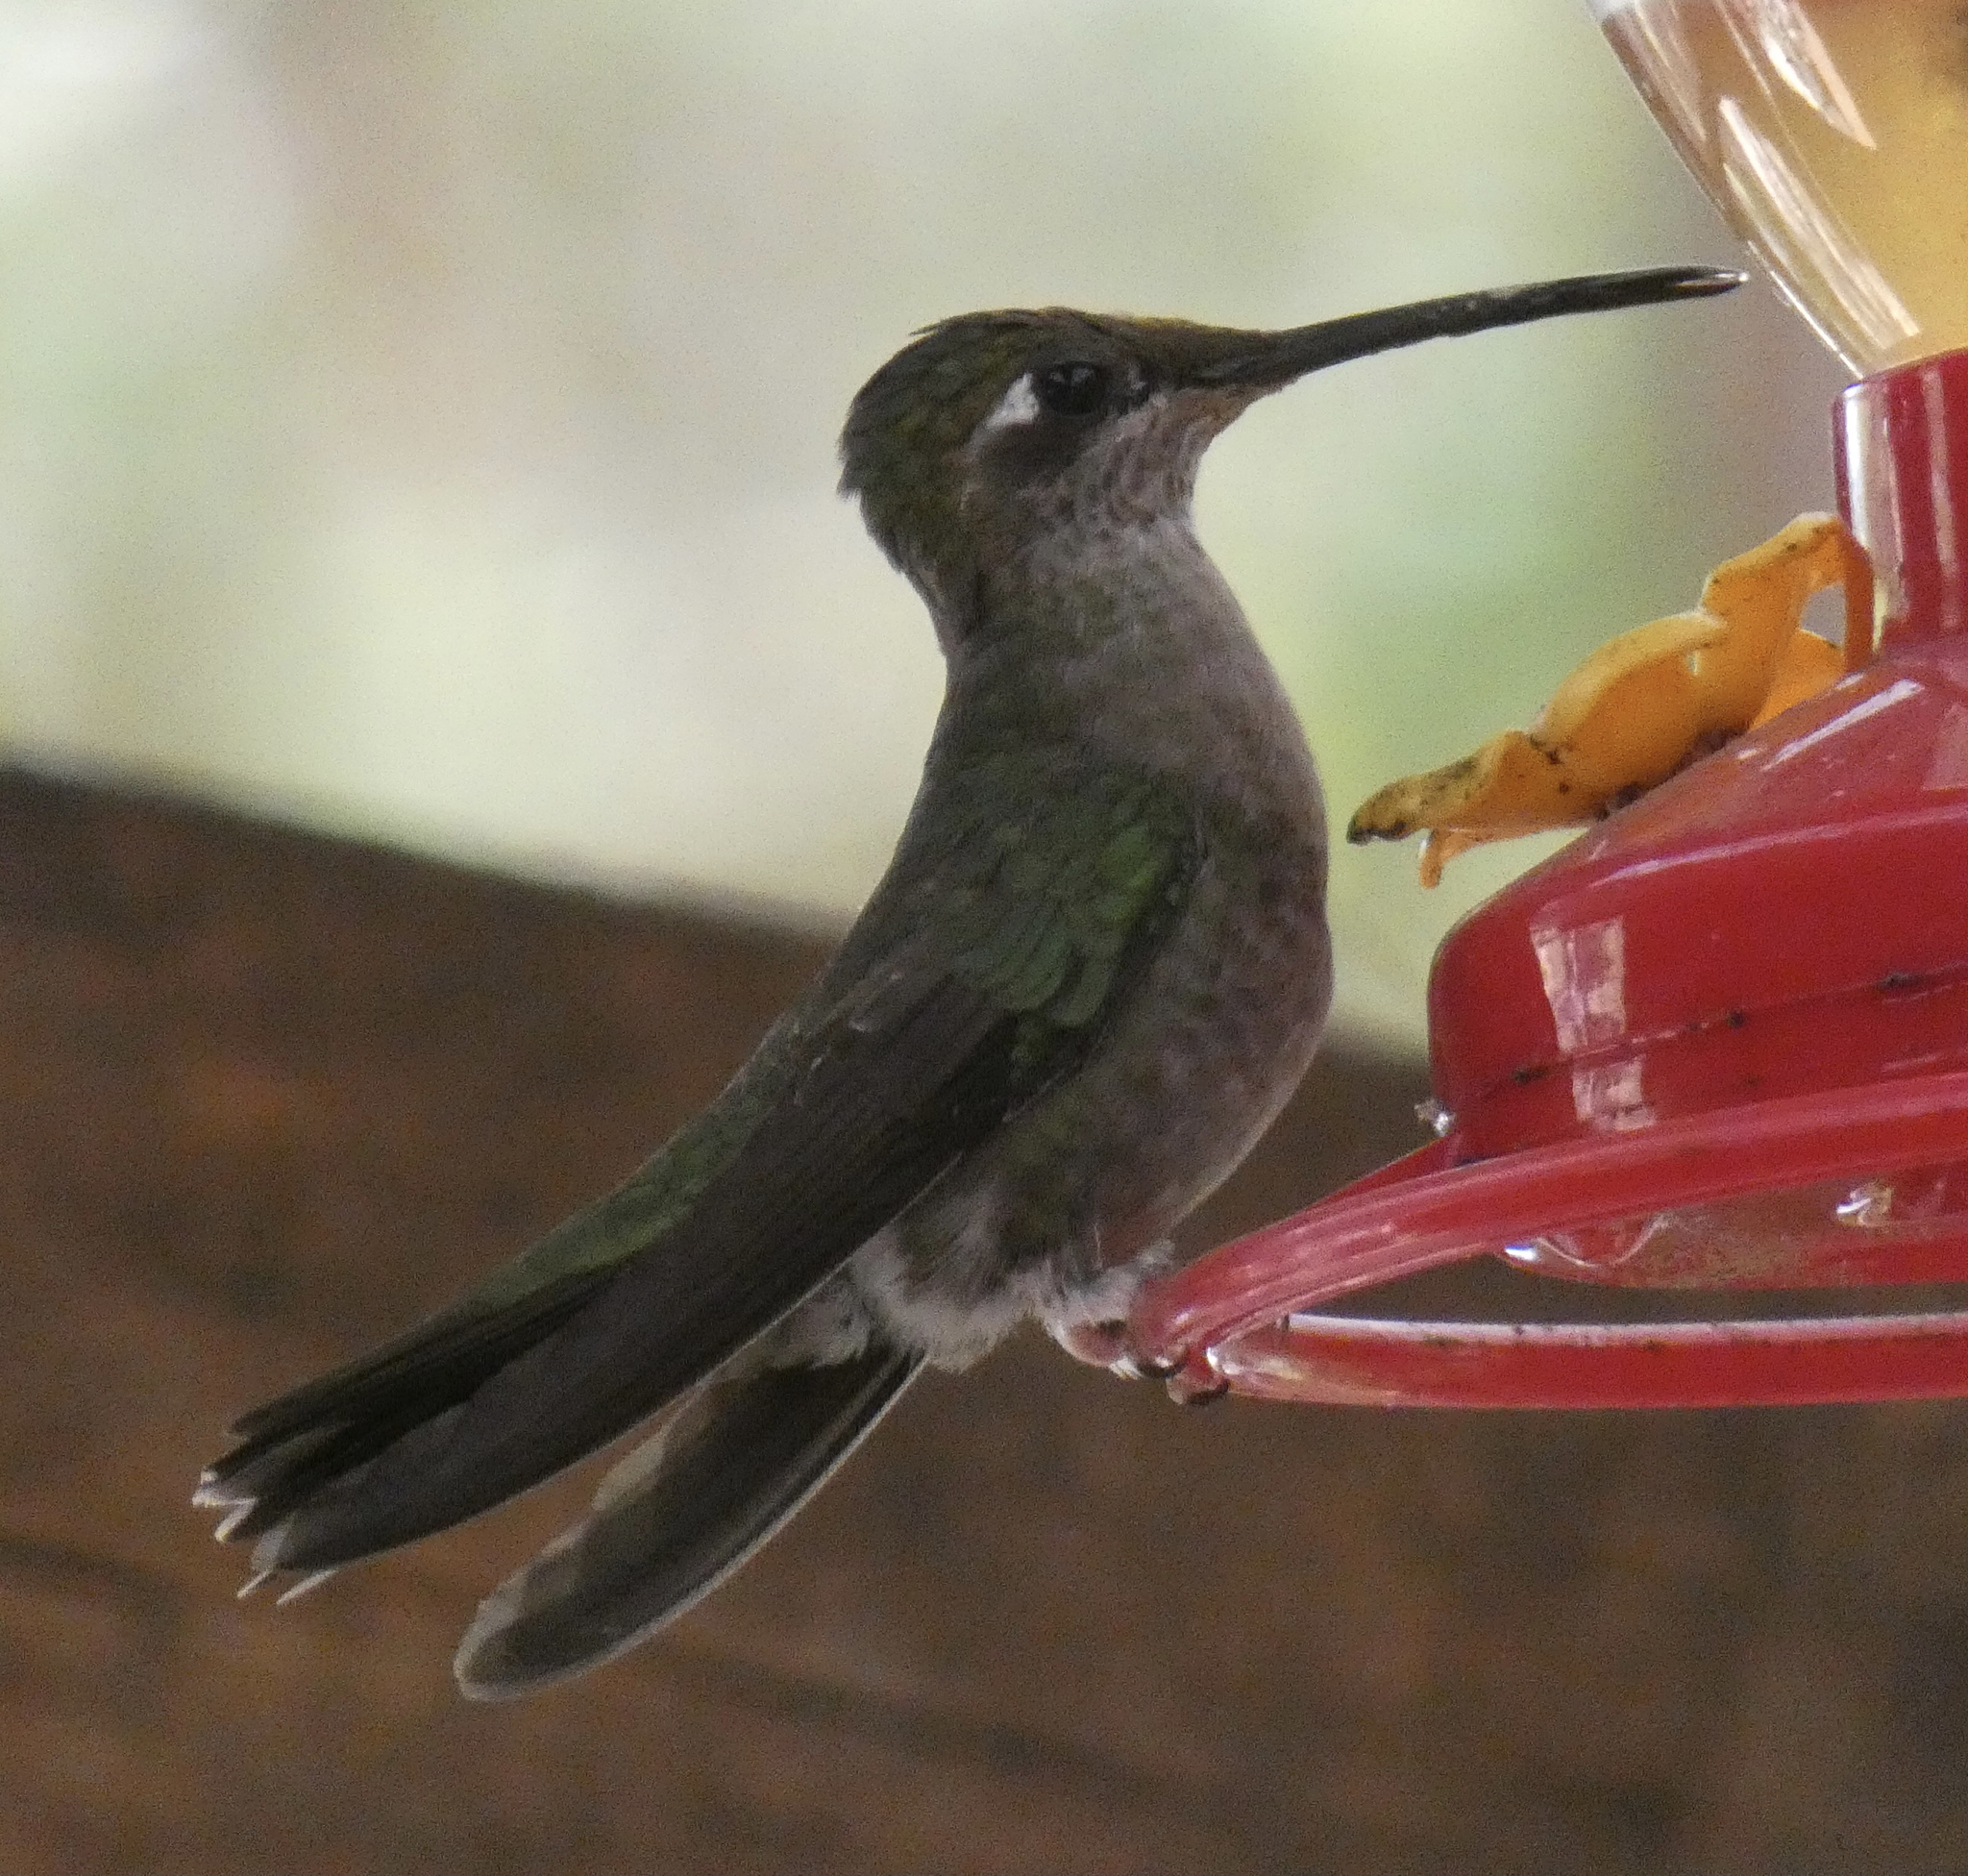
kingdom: Animalia
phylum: Chordata
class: Aves
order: Apodiformes
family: Trochilidae
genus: Eugenes
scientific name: Eugenes fulgens
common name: Magnificent hummingbird
